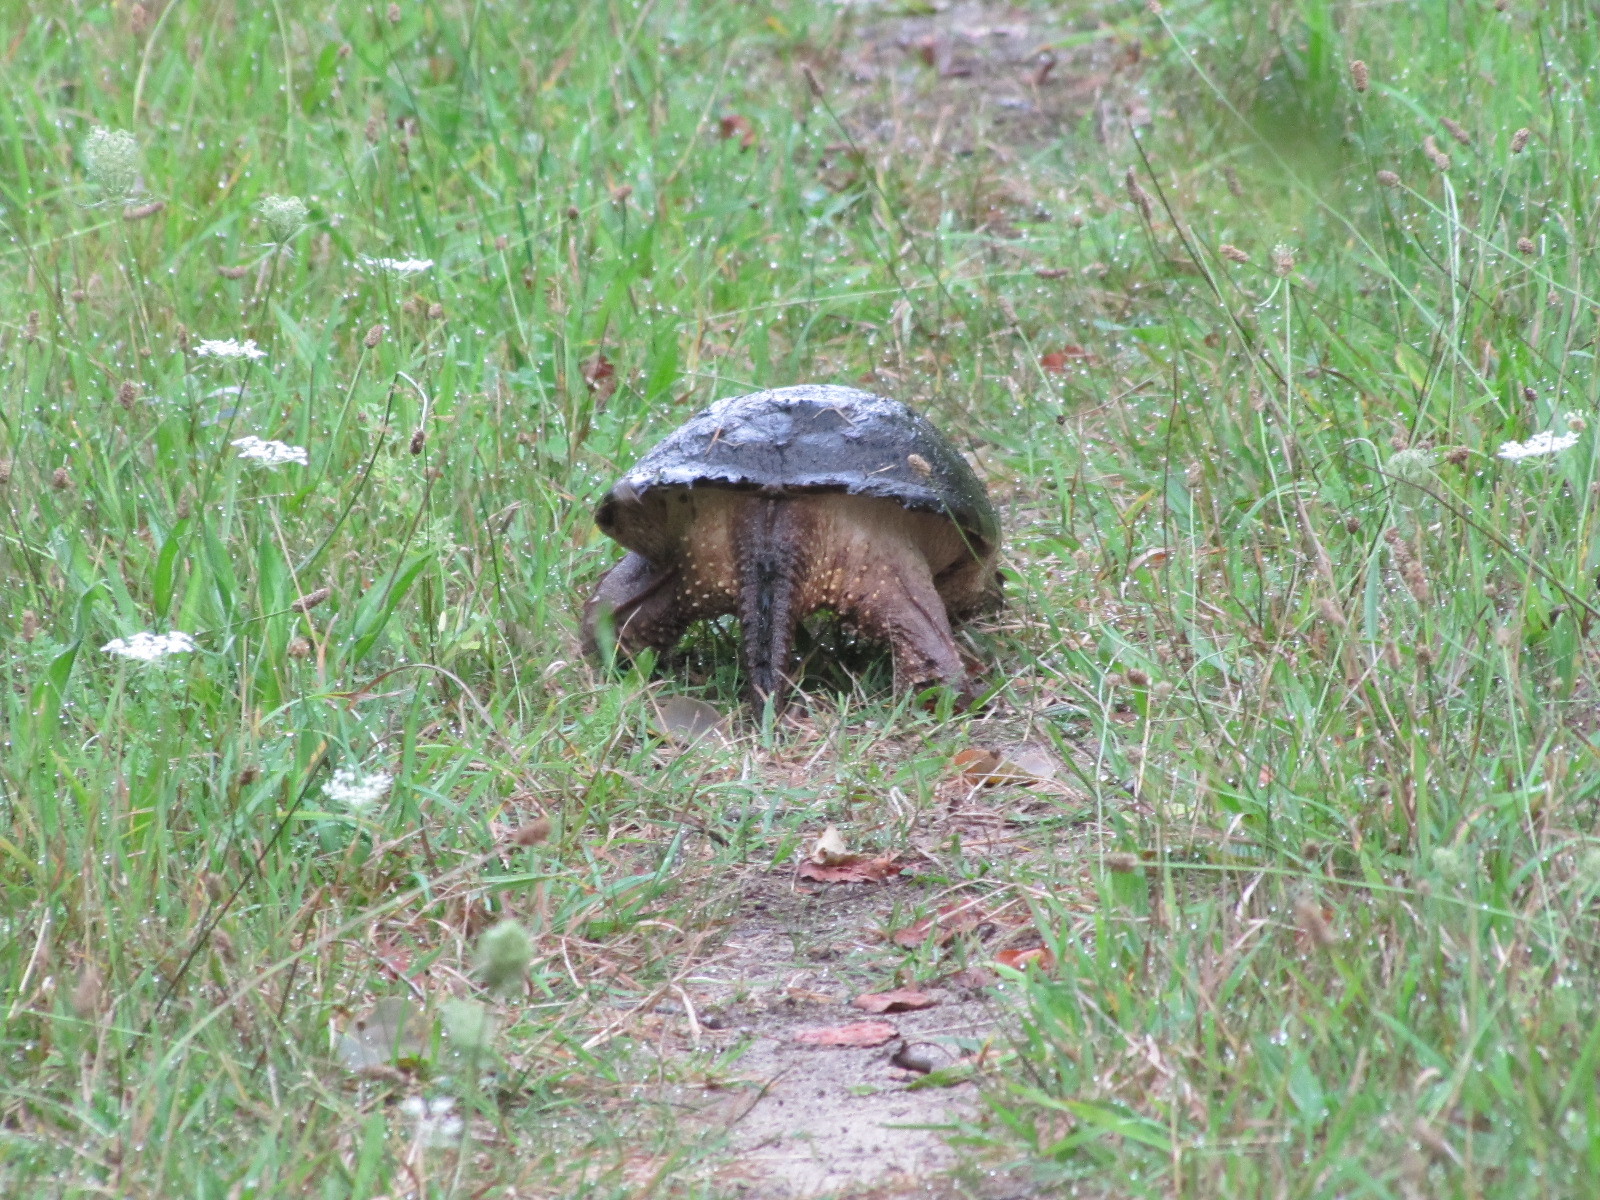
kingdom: Animalia
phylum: Chordata
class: Testudines
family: Chelydridae
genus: Chelydra
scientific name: Chelydra serpentina
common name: Common snapping turtle
